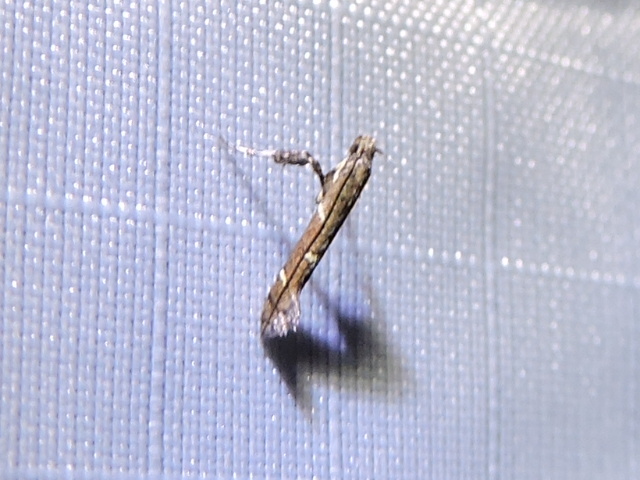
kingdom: Animalia
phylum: Arthropoda
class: Insecta
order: Lepidoptera
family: Gracillariidae
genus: Caloptilia
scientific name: Caloptilia triadicae
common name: Tallow leaf roller
